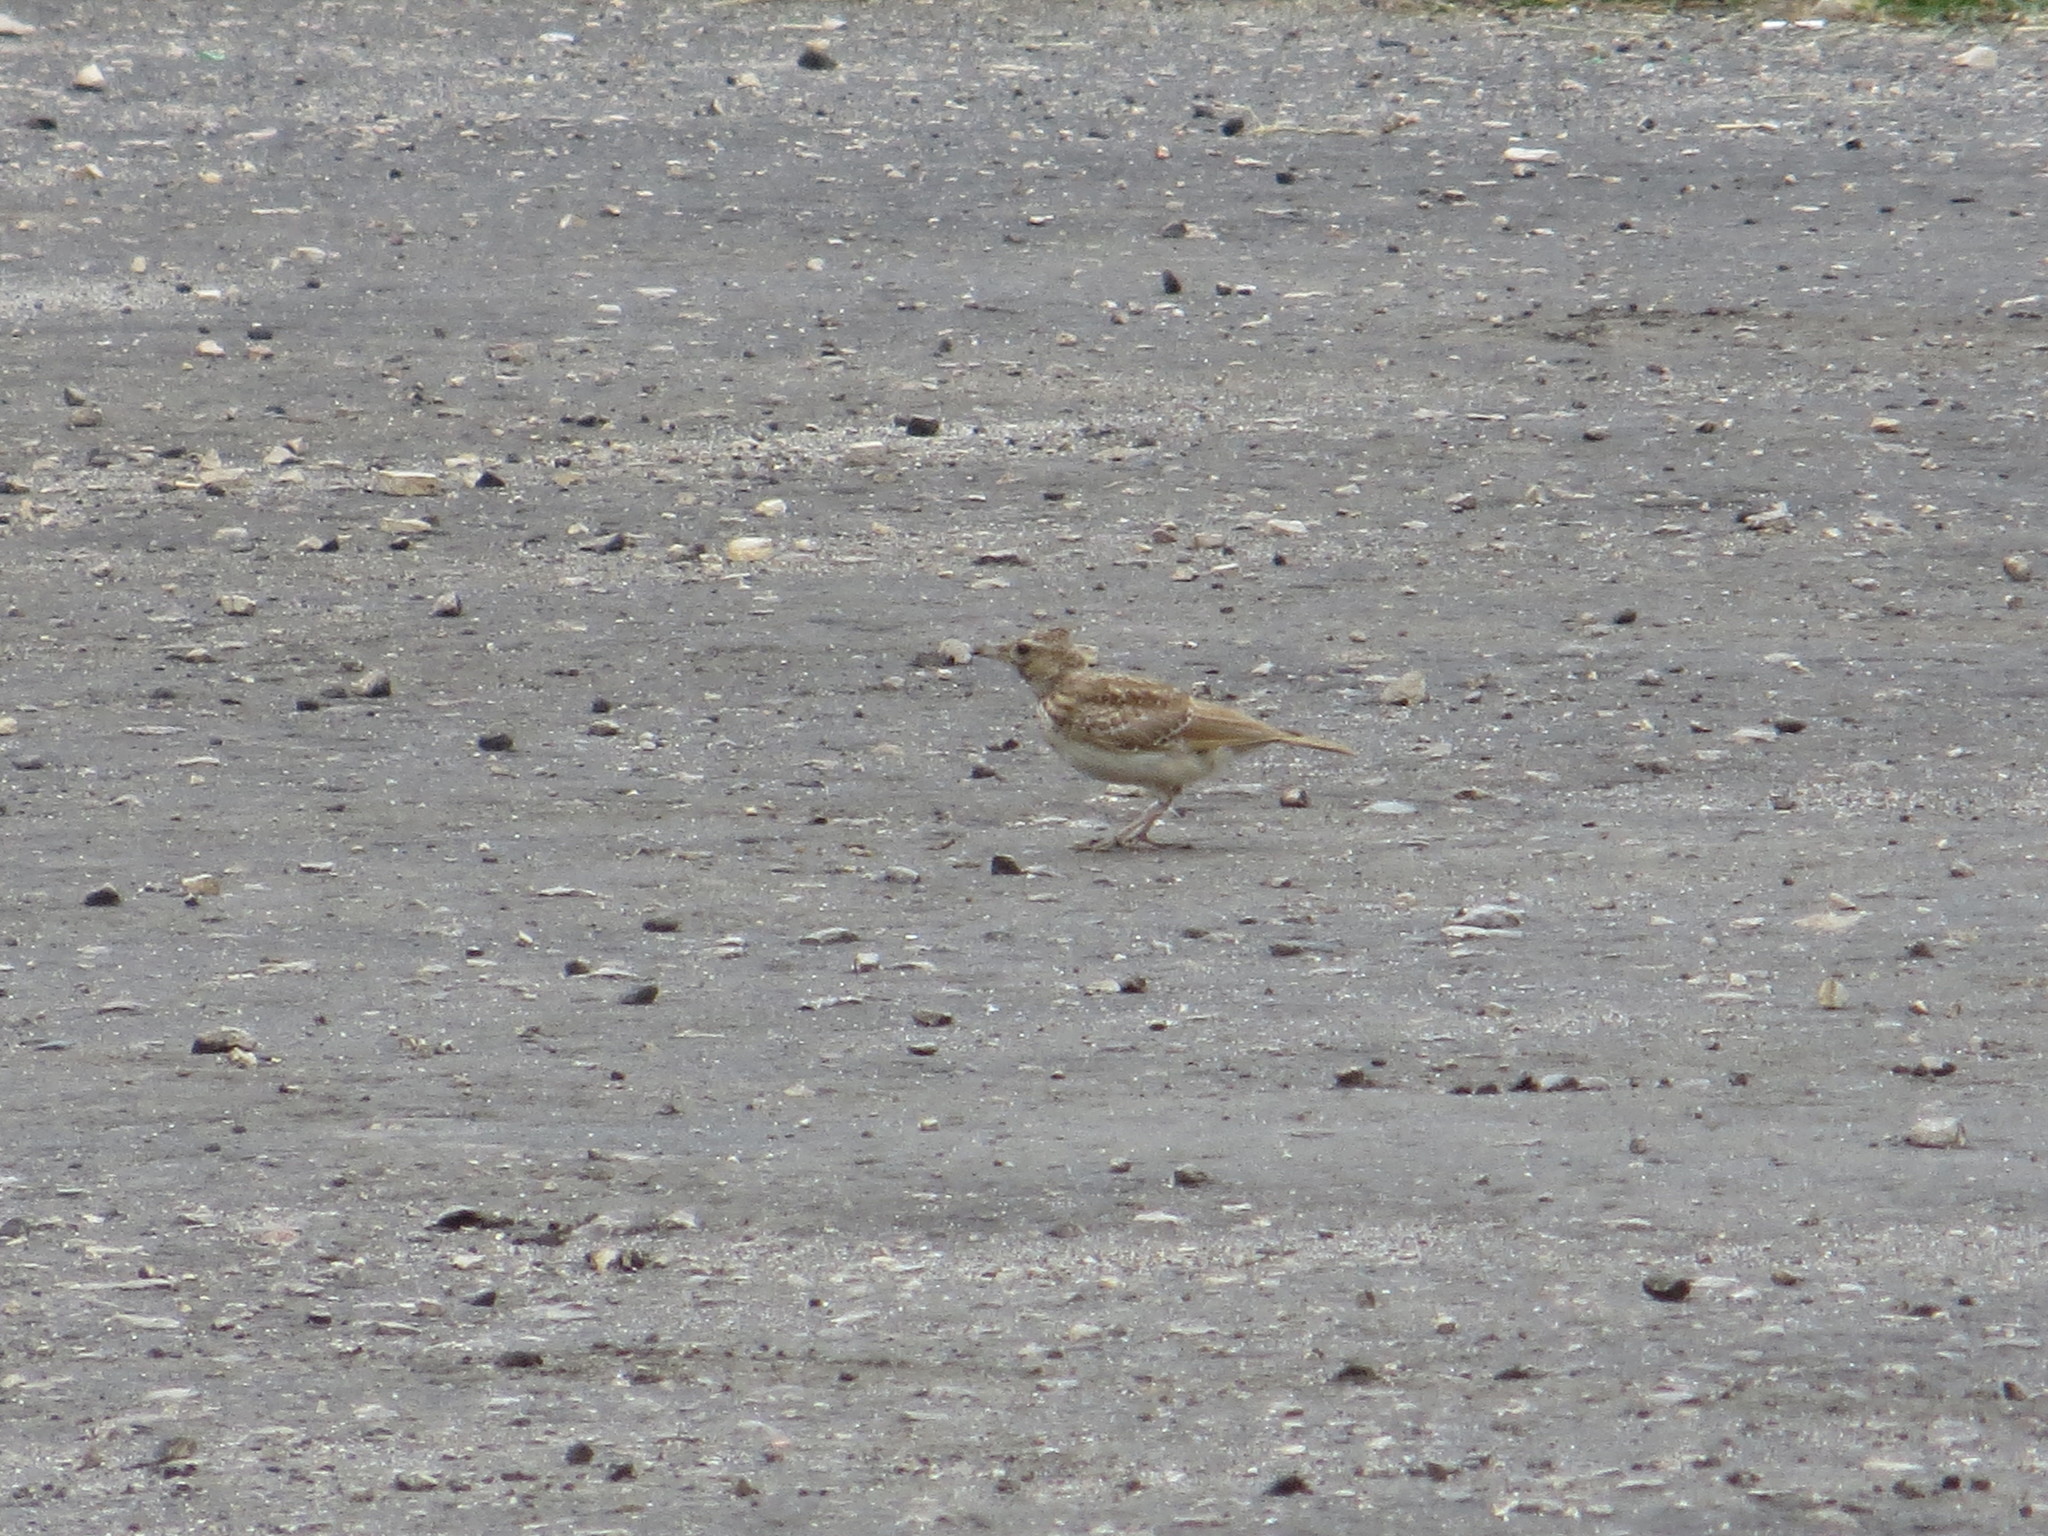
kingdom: Animalia
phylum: Chordata
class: Aves
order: Passeriformes
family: Alaudidae
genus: Galerida
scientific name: Galerida cristata
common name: Crested lark
